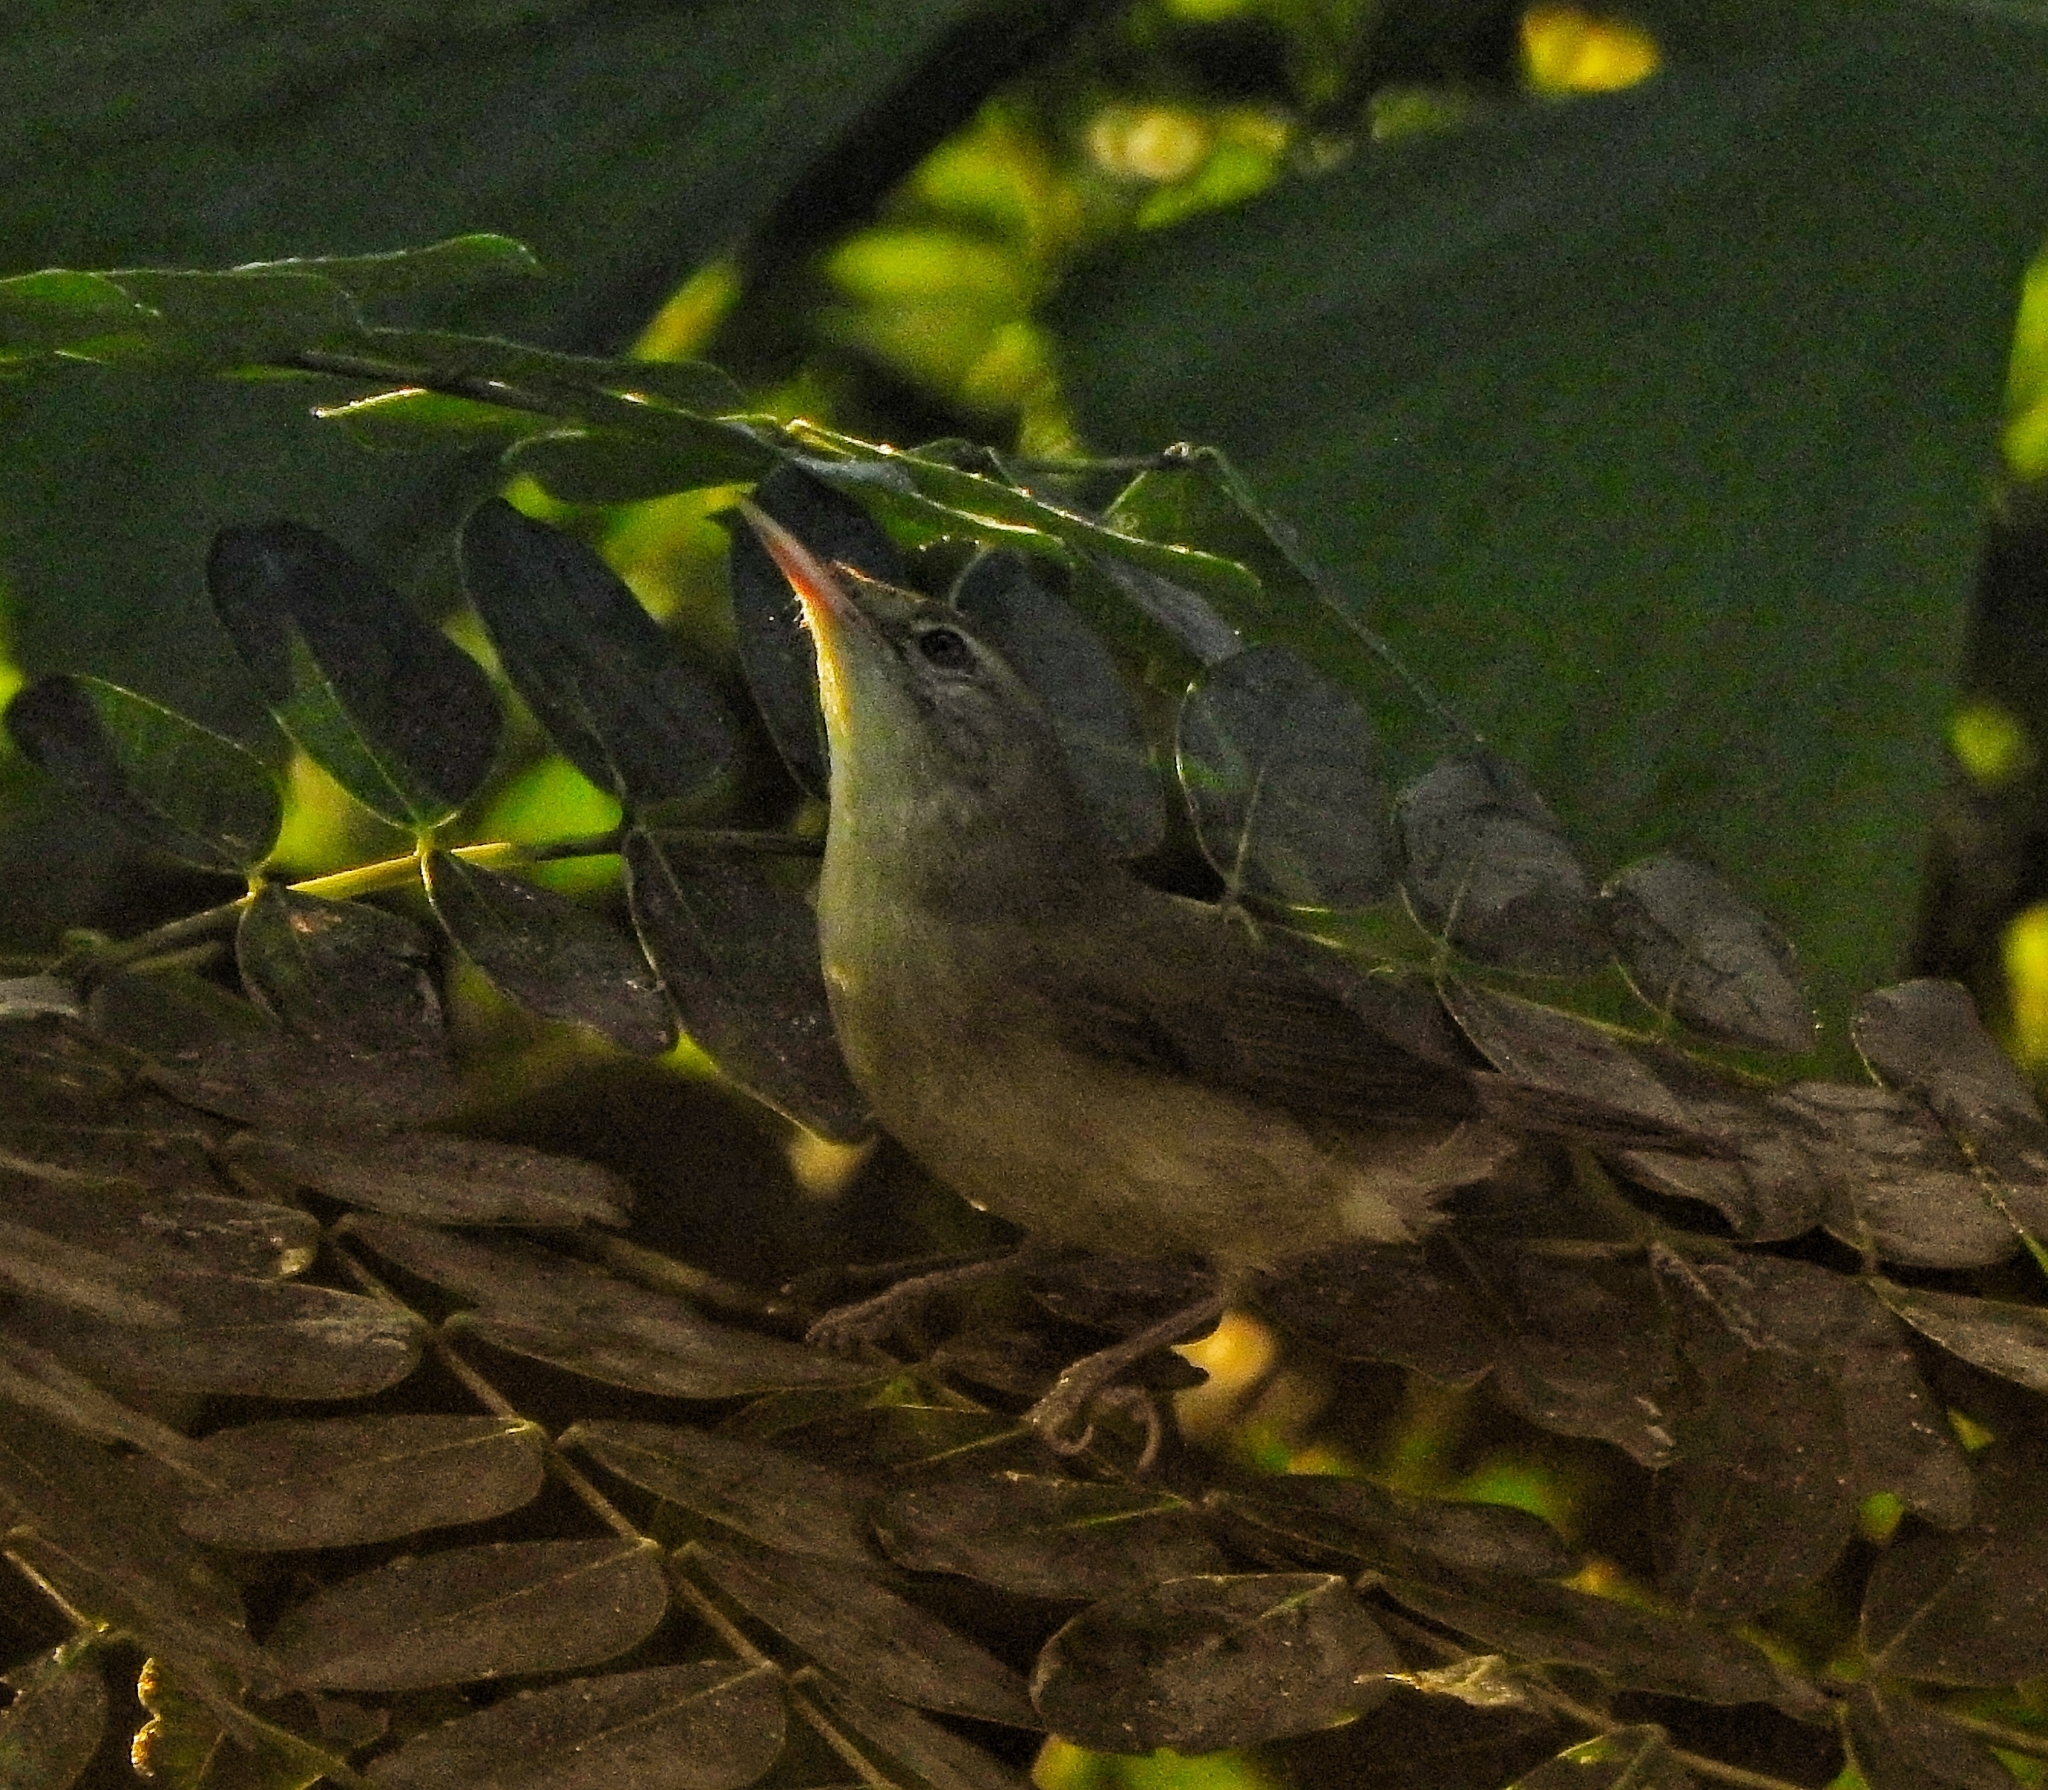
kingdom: Animalia
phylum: Chordata
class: Aves
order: Passeriformes
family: Acrocephalidae
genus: Acrocephalus
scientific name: Acrocephalus dumetorum
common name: Blyth's reed warbler
